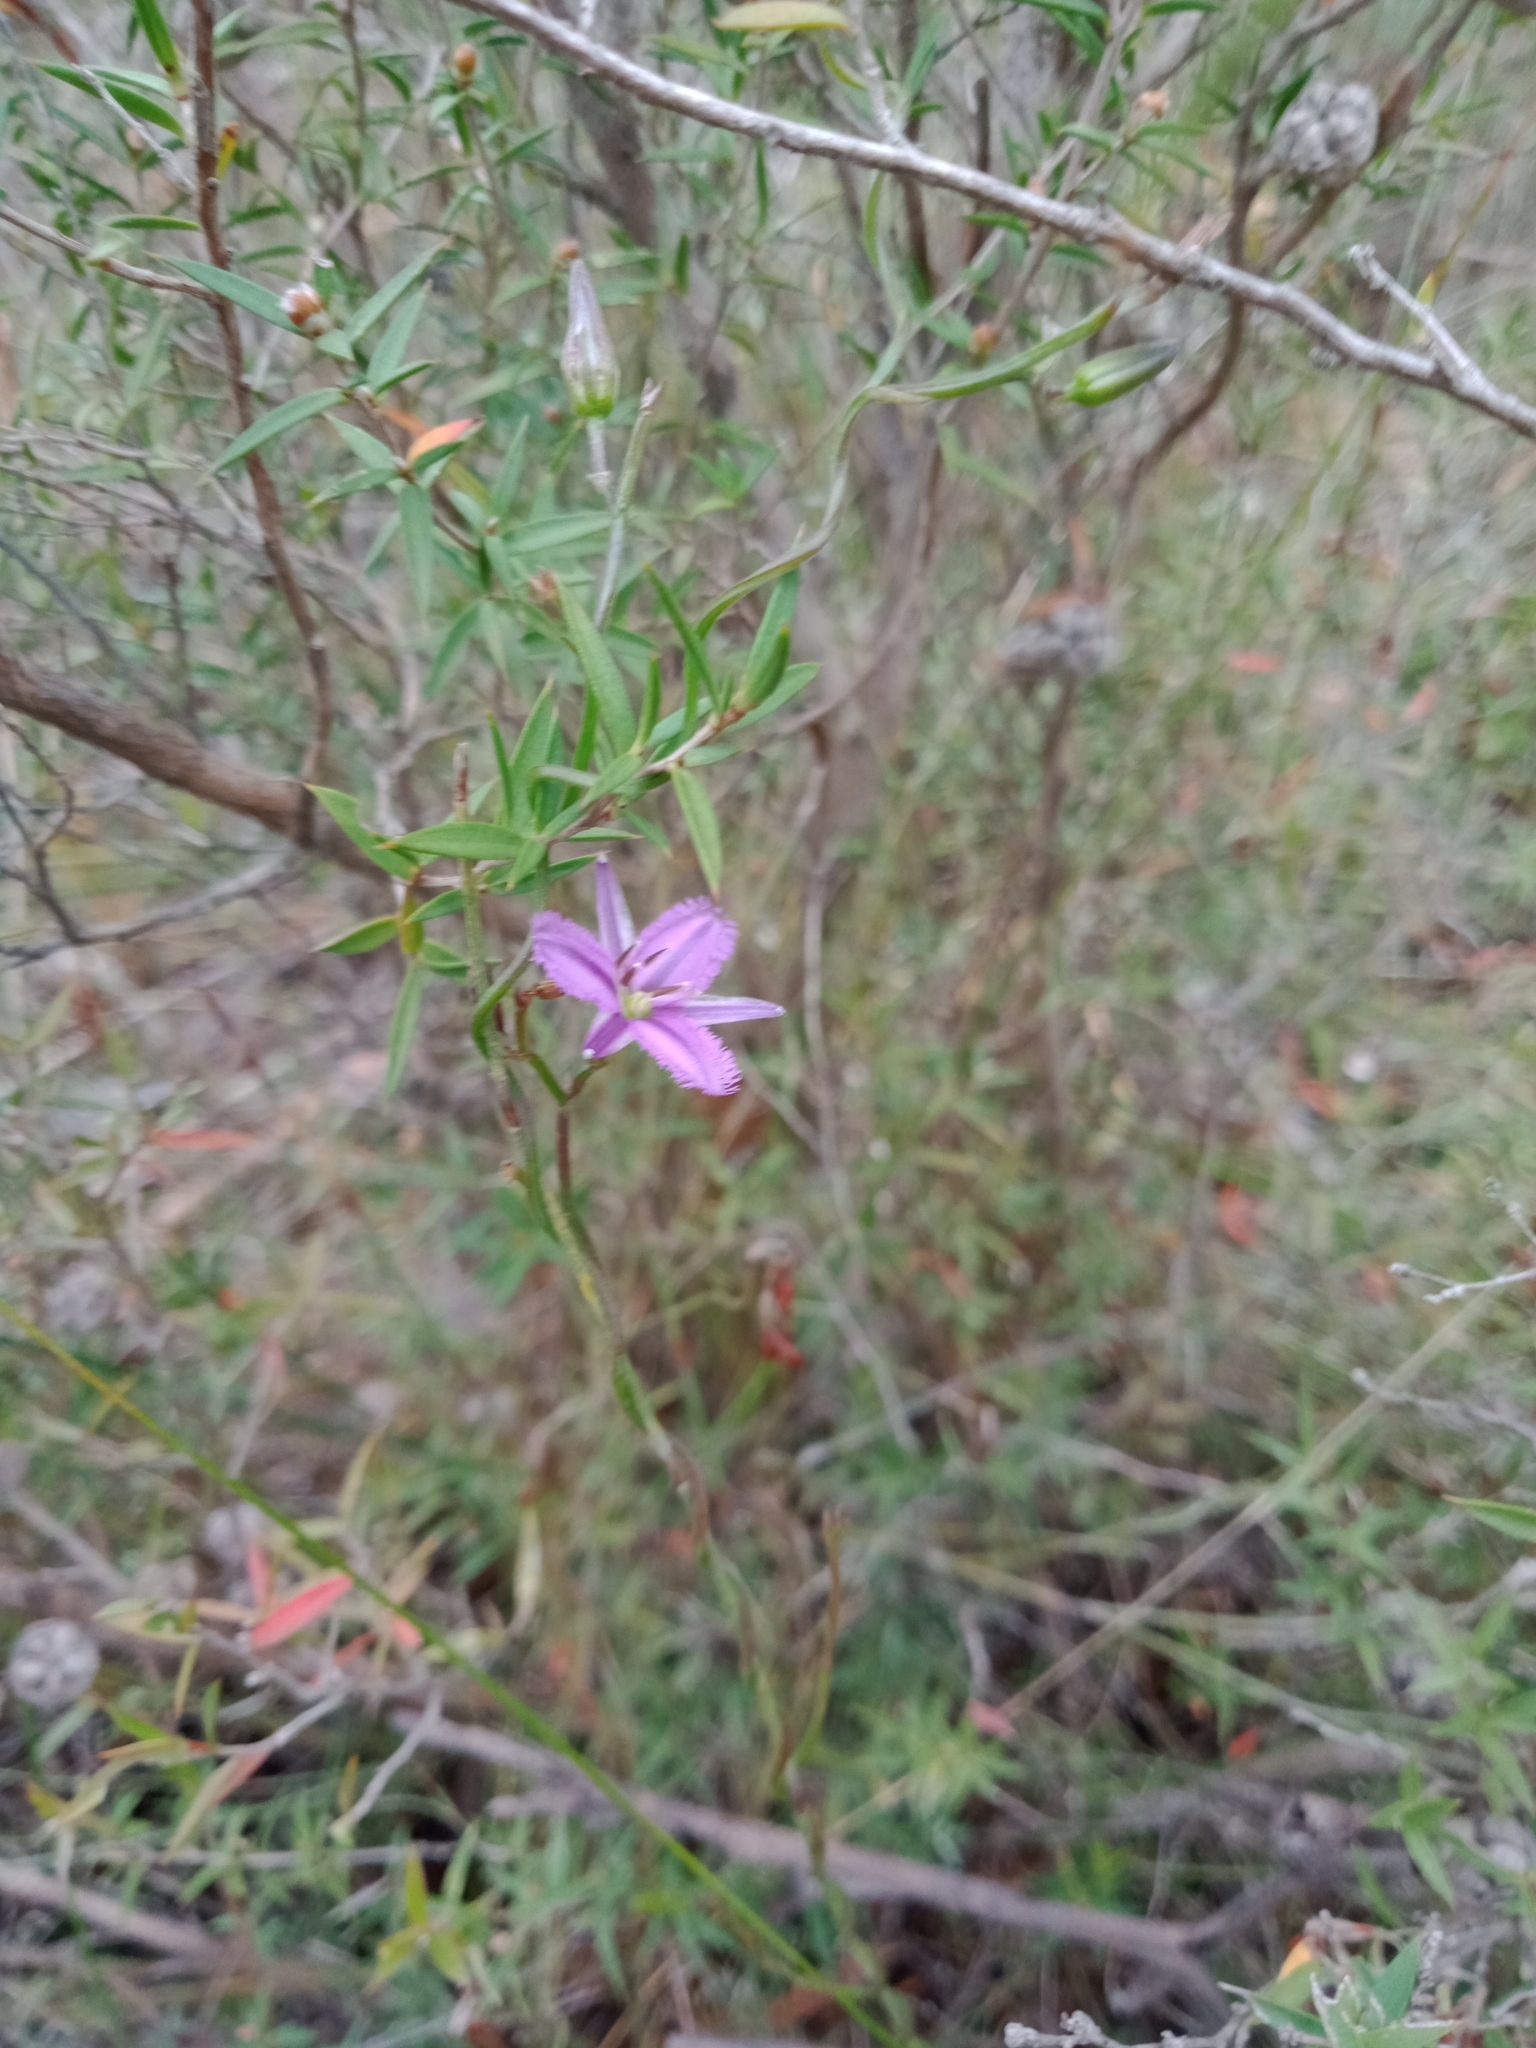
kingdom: Plantae
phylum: Tracheophyta
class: Liliopsida
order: Asparagales
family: Asparagaceae
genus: Thysanotus
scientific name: Thysanotus patersonii
